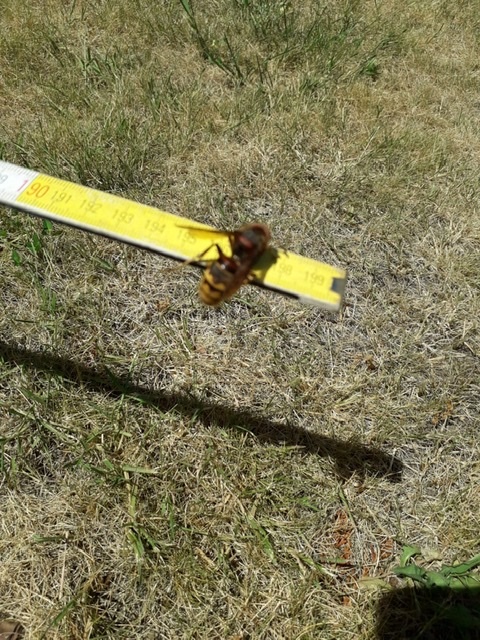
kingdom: Animalia
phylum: Arthropoda
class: Insecta
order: Hymenoptera
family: Vespidae
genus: Vespa
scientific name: Vespa crabro
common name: Hornet
